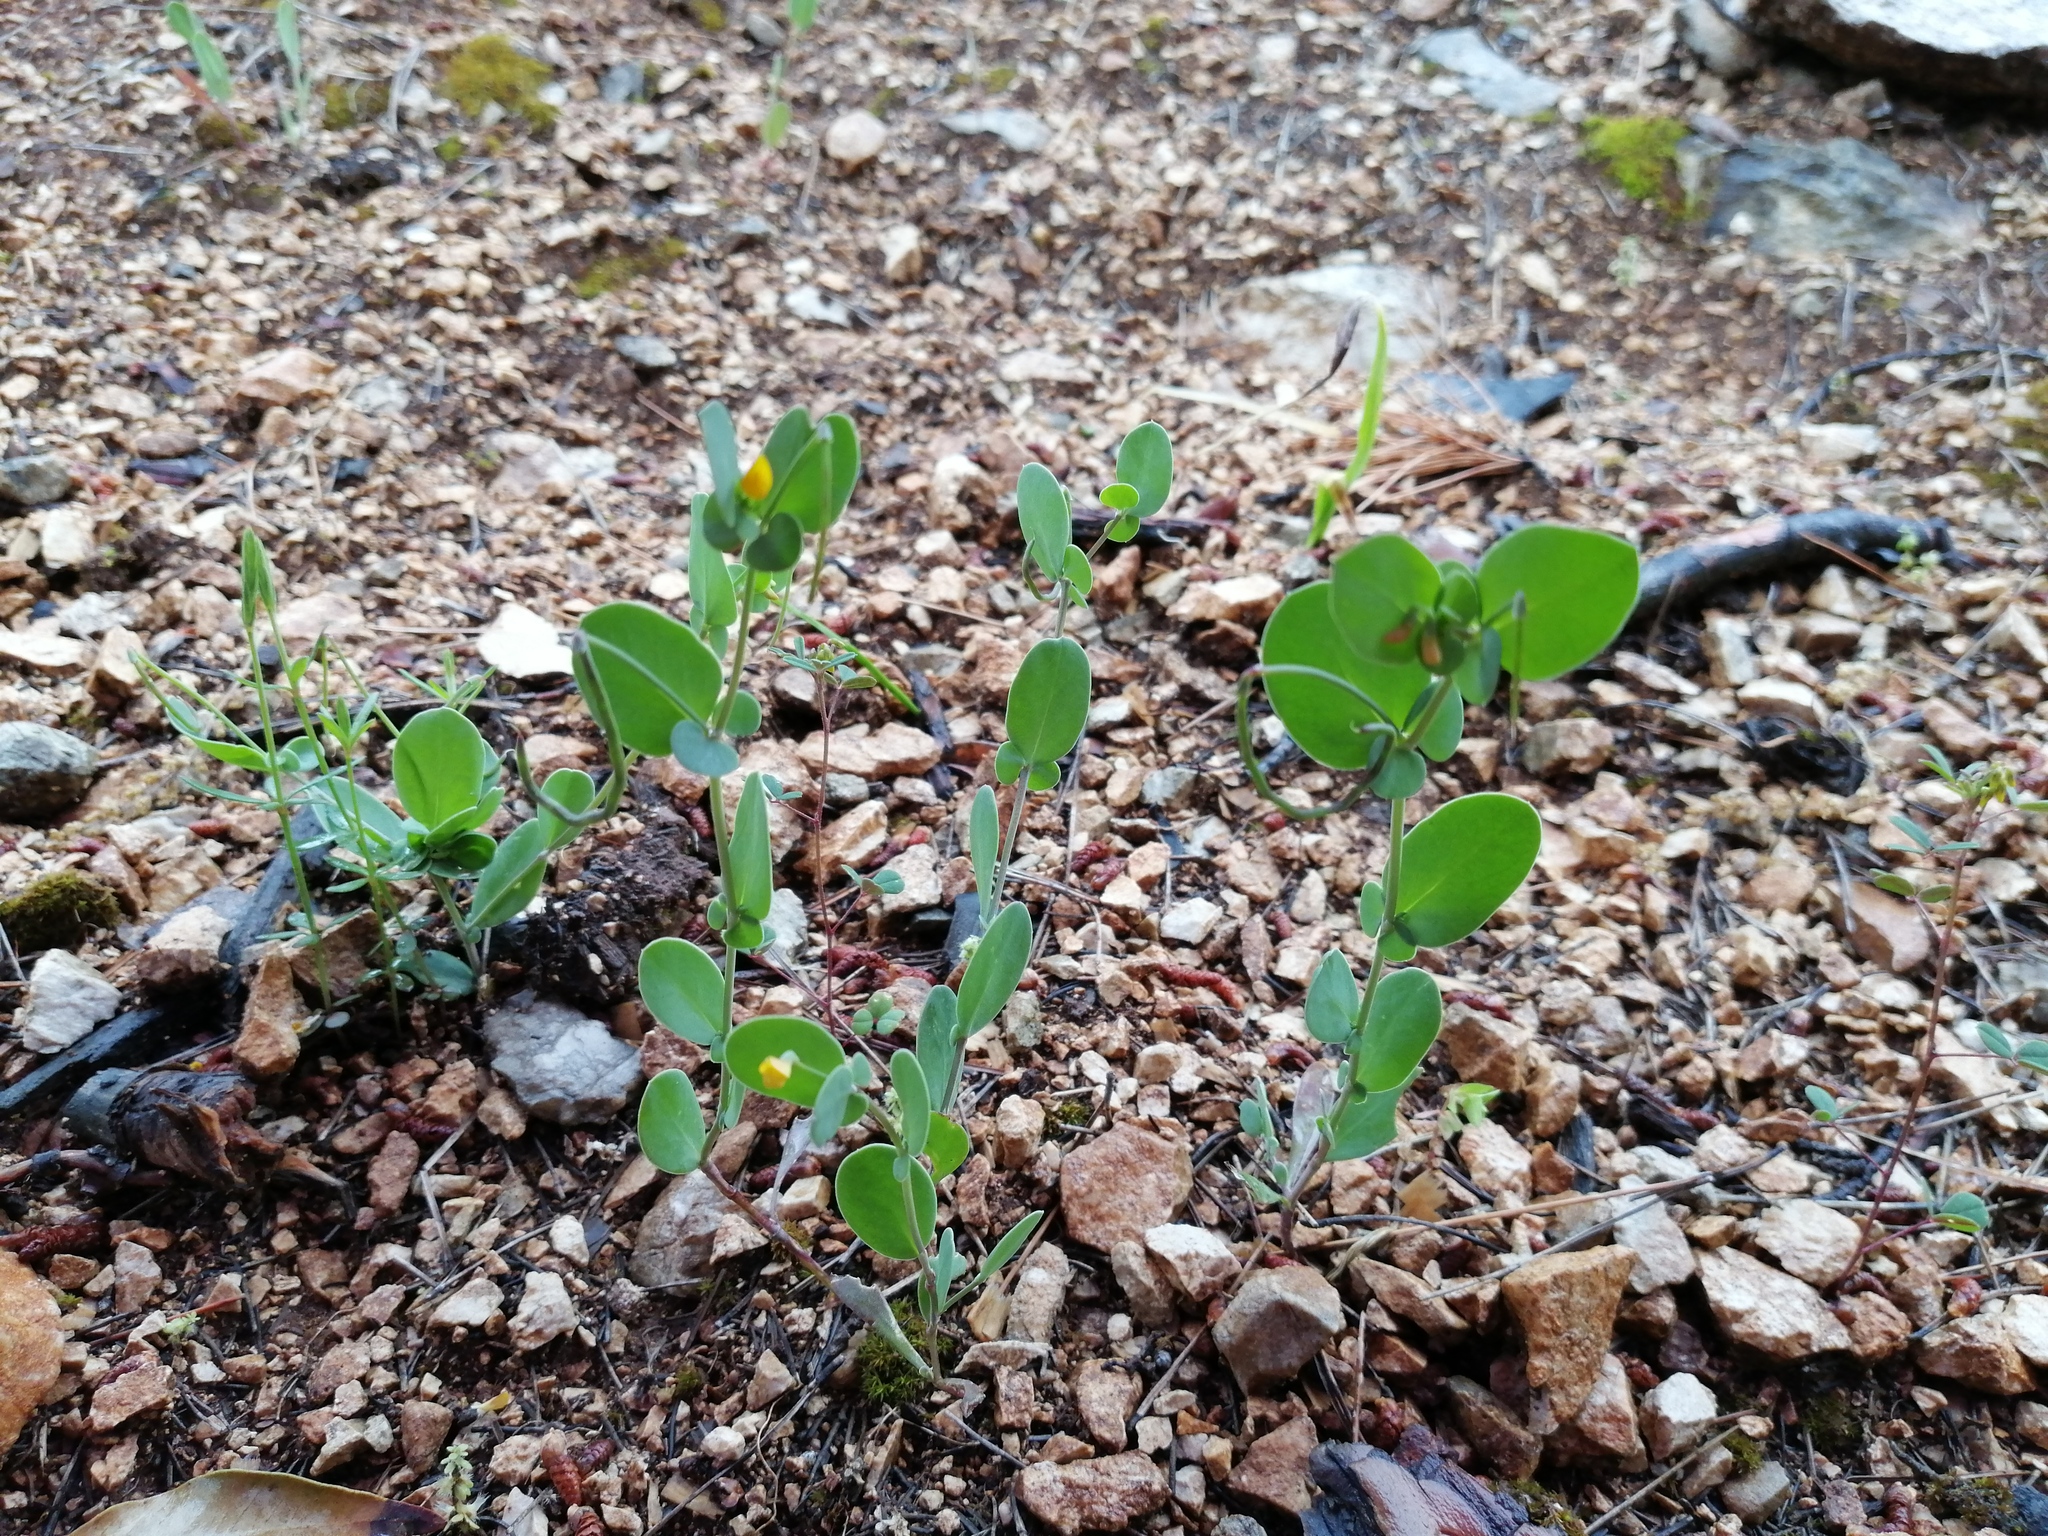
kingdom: Plantae
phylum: Tracheophyta
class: Magnoliopsida
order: Fabales
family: Fabaceae
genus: Coronilla
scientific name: Coronilla scorpioides
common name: Annual scorpion-vetch
